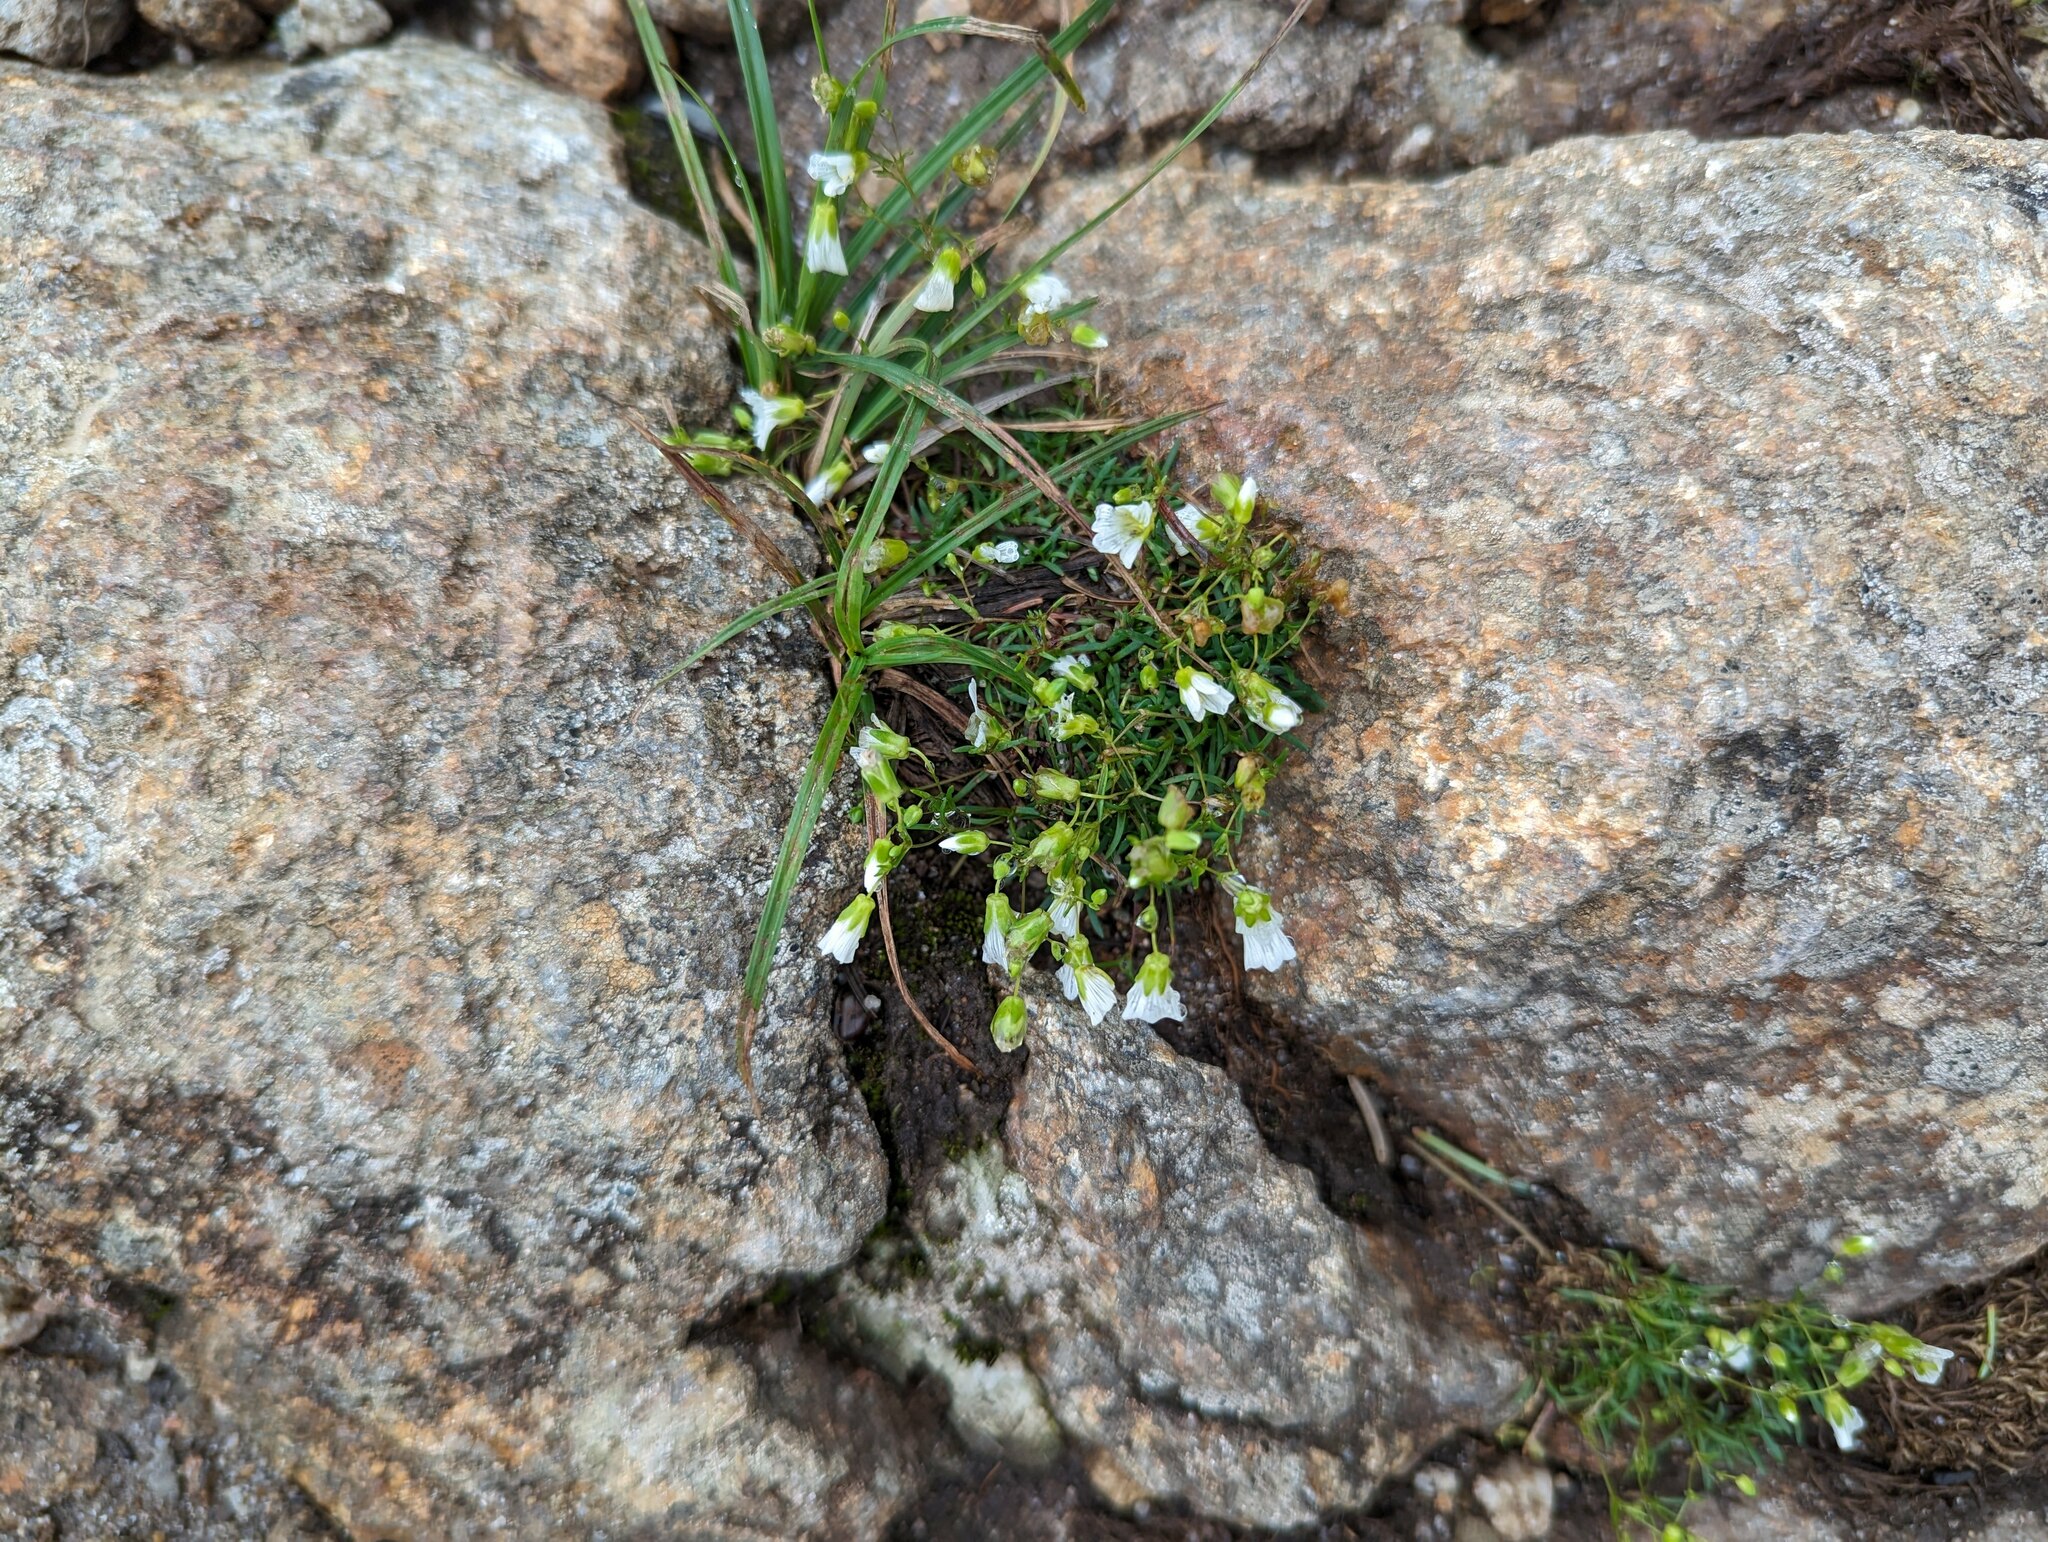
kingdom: Plantae
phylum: Tracheophyta
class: Magnoliopsida
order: Caryophyllales
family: Caryophyllaceae
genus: Geocarpon
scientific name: Geocarpon groenlandicum
